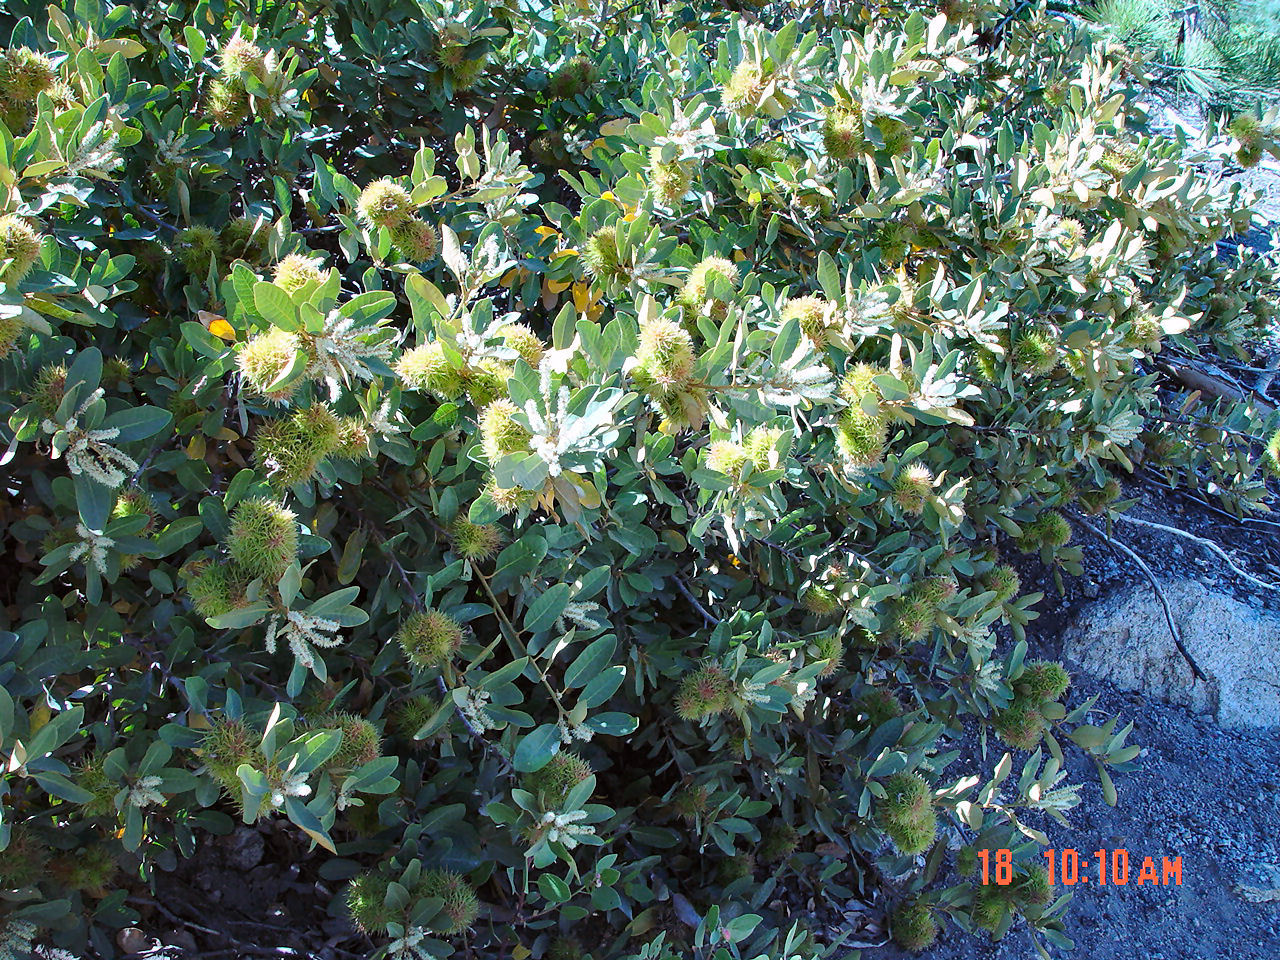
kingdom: Plantae
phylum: Tracheophyta
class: Magnoliopsida
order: Fagales
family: Fagaceae
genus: Chrysolepis
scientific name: Chrysolepis sempervirens
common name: Bush chinquapin
